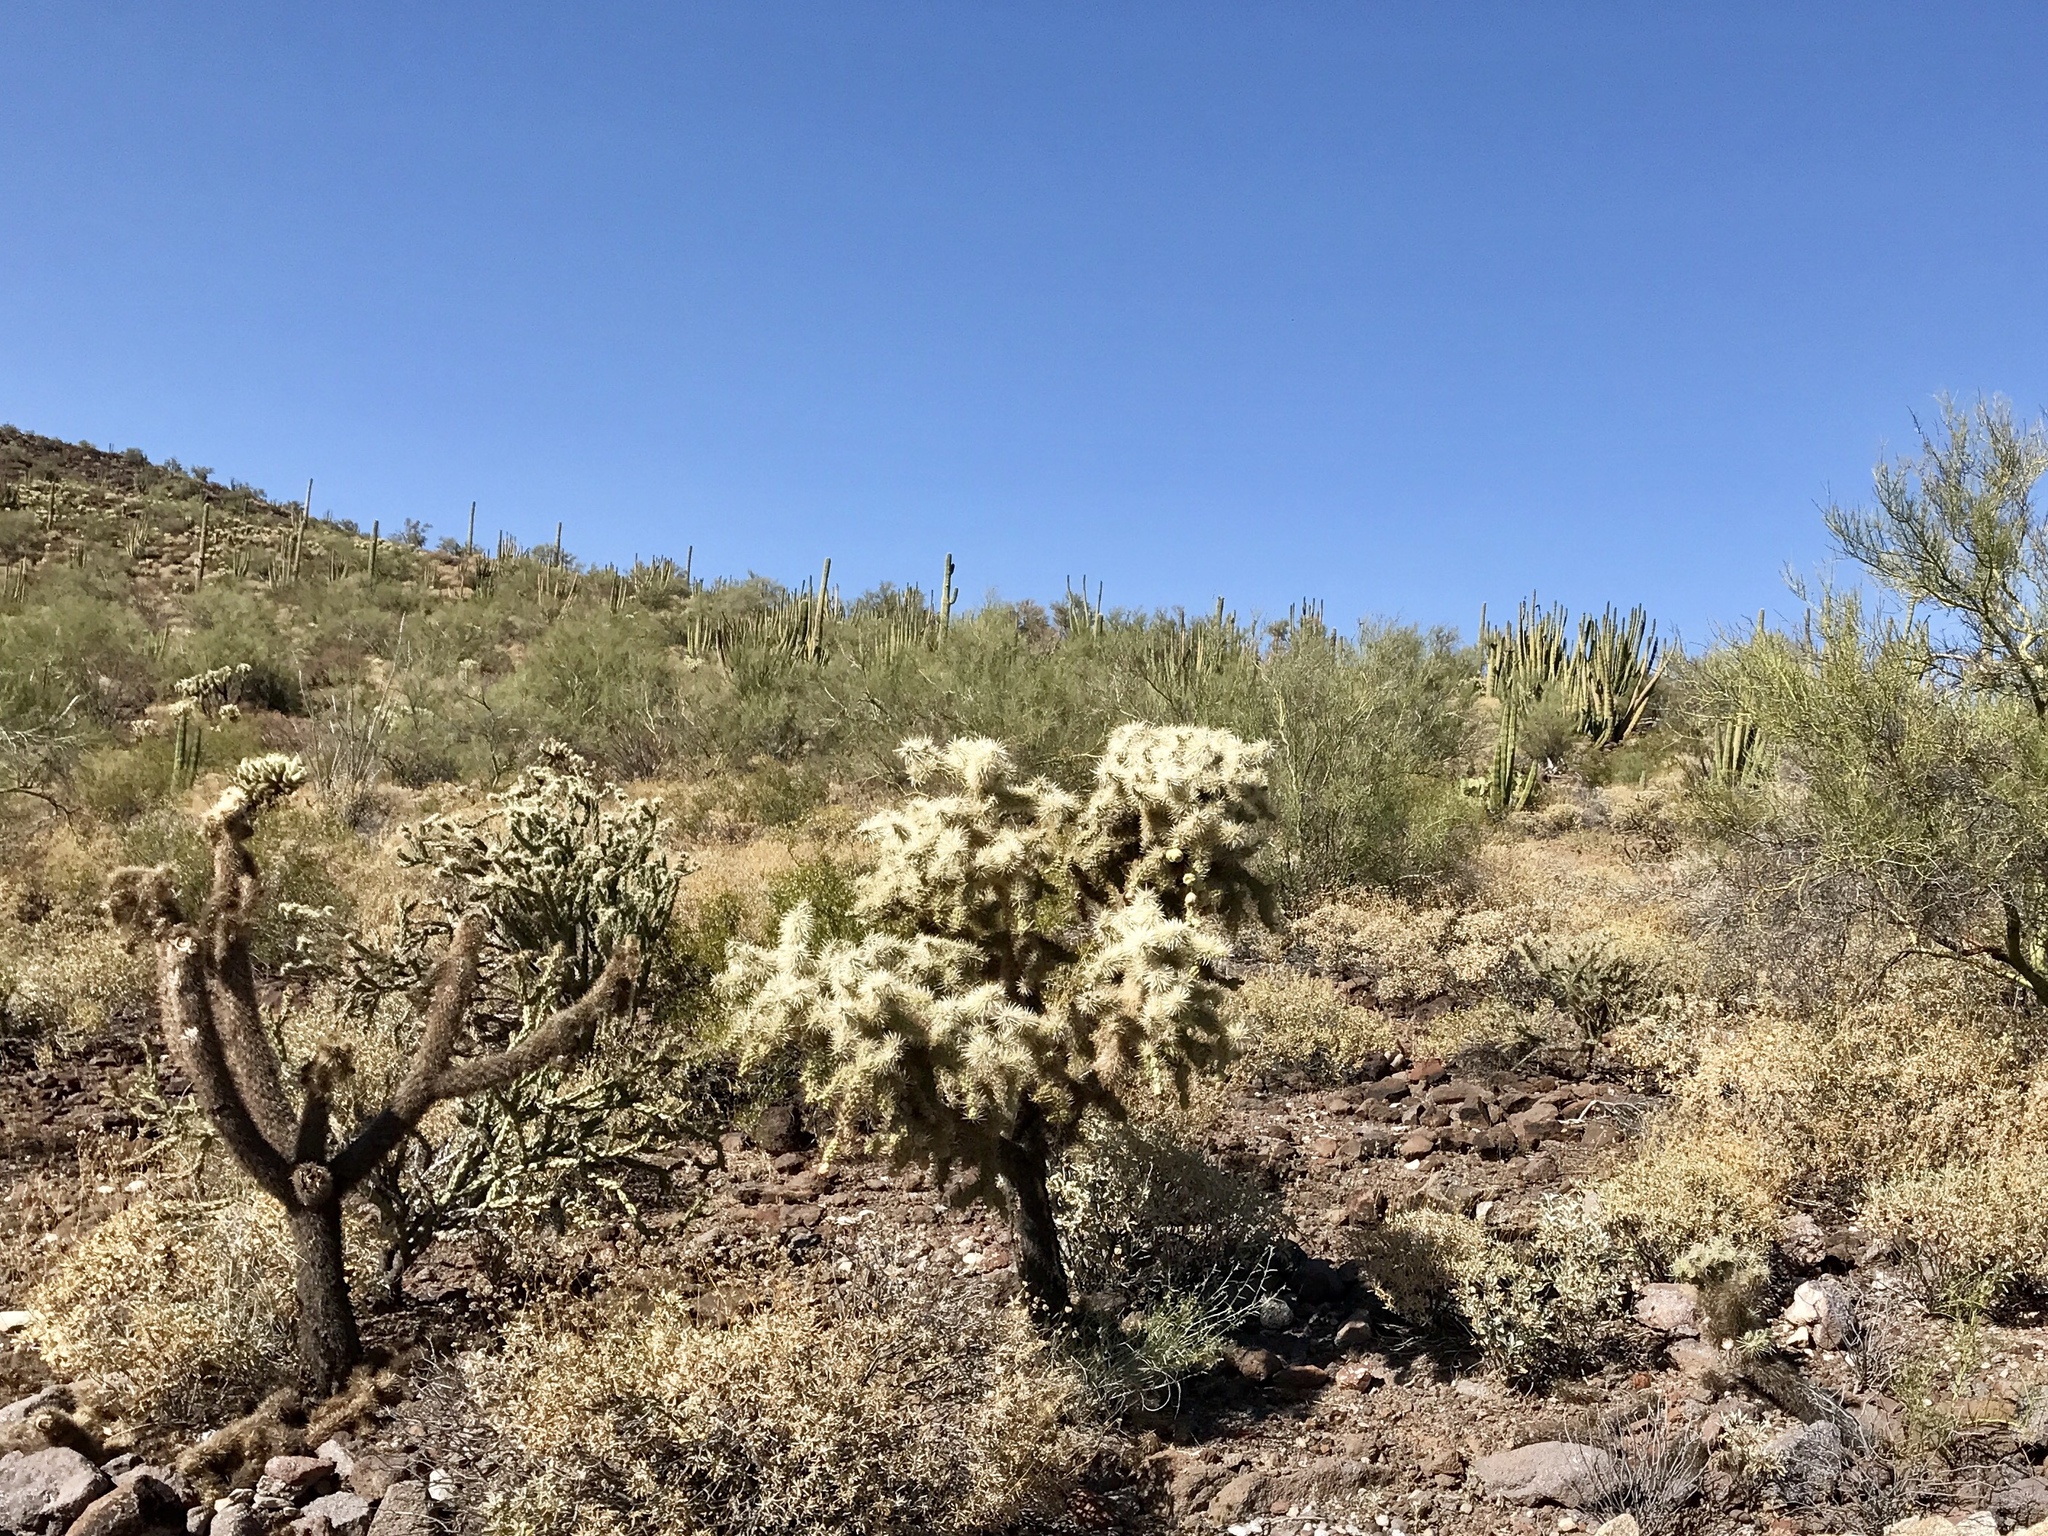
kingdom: Plantae
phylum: Tracheophyta
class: Magnoliopsida
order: Caryophyllales
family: Cactaceae
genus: Cylindropuntia
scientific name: Cylindropuntia fulgida
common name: Jumping cholla
